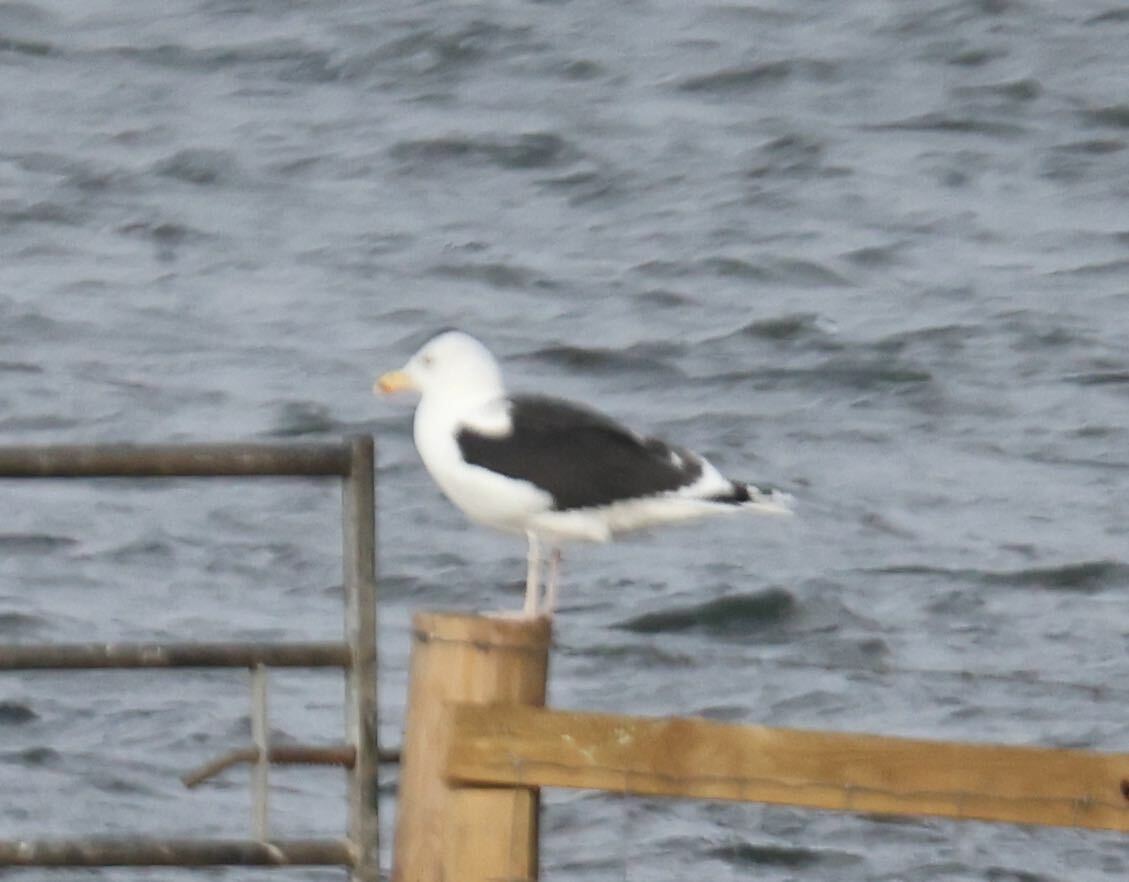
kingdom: Animalia
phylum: Chordata
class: Aves
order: Charadriiformes
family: Laridae
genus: Larus
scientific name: Larus marinus
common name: Great black-backed gull
